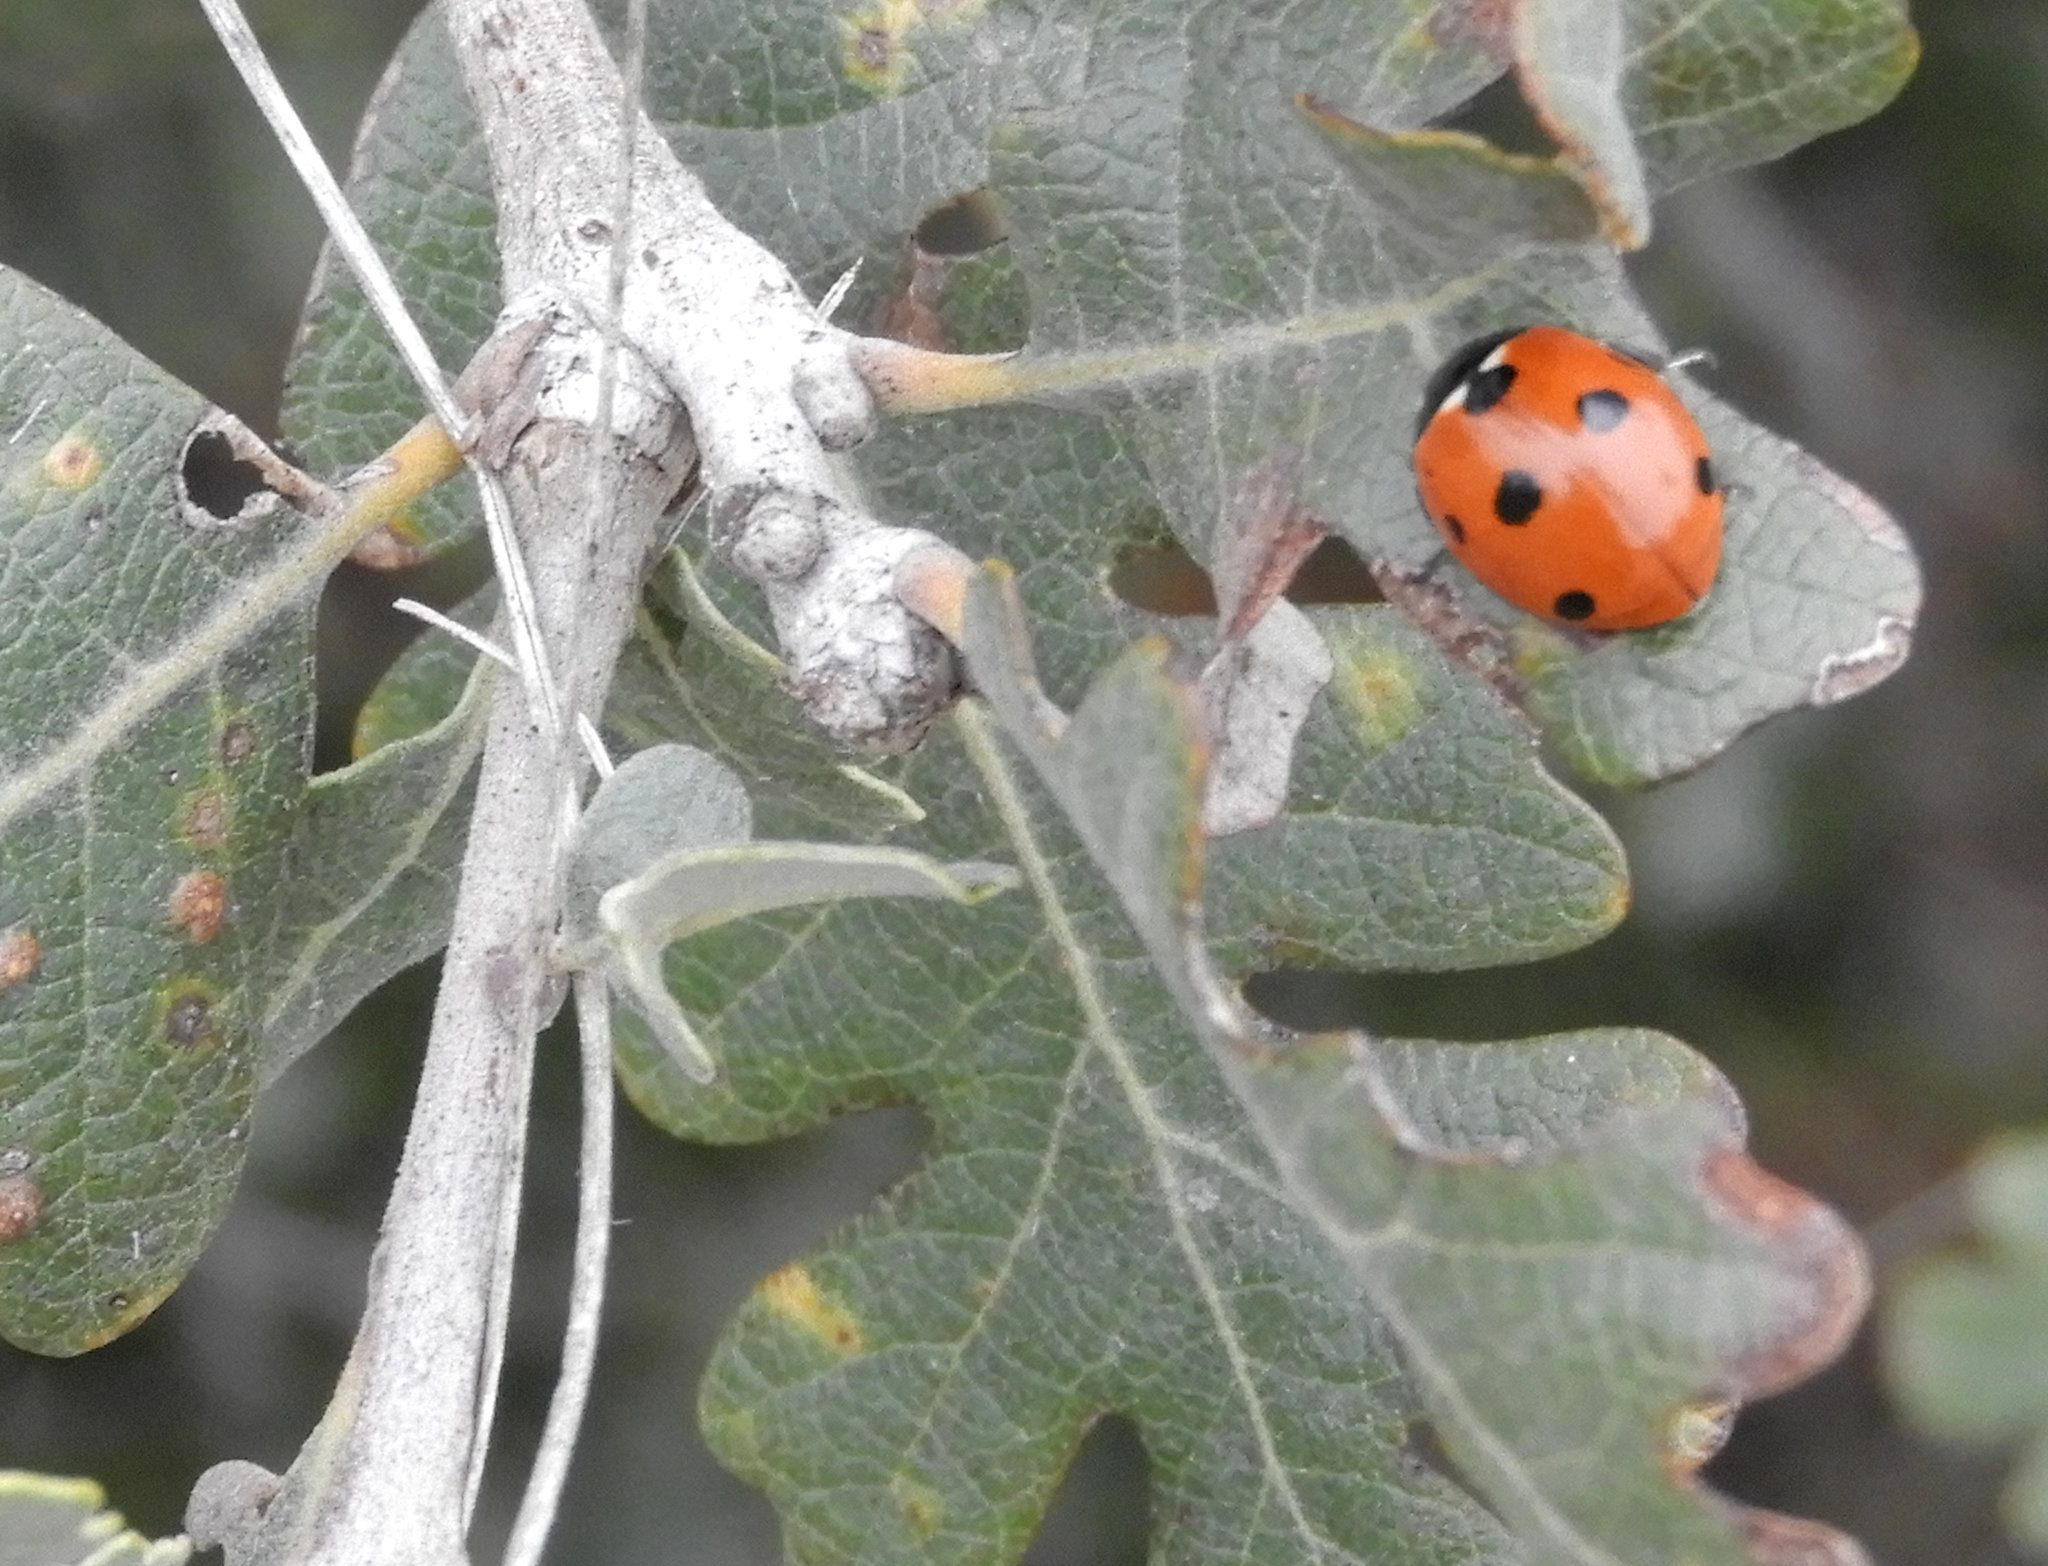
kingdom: Animalia
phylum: Arthropoda
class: Insecta
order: Coleoptera
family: Coccinellidae
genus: Coccinella
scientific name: Coccinella septempunctata
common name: Sevenspotted lady beetle
